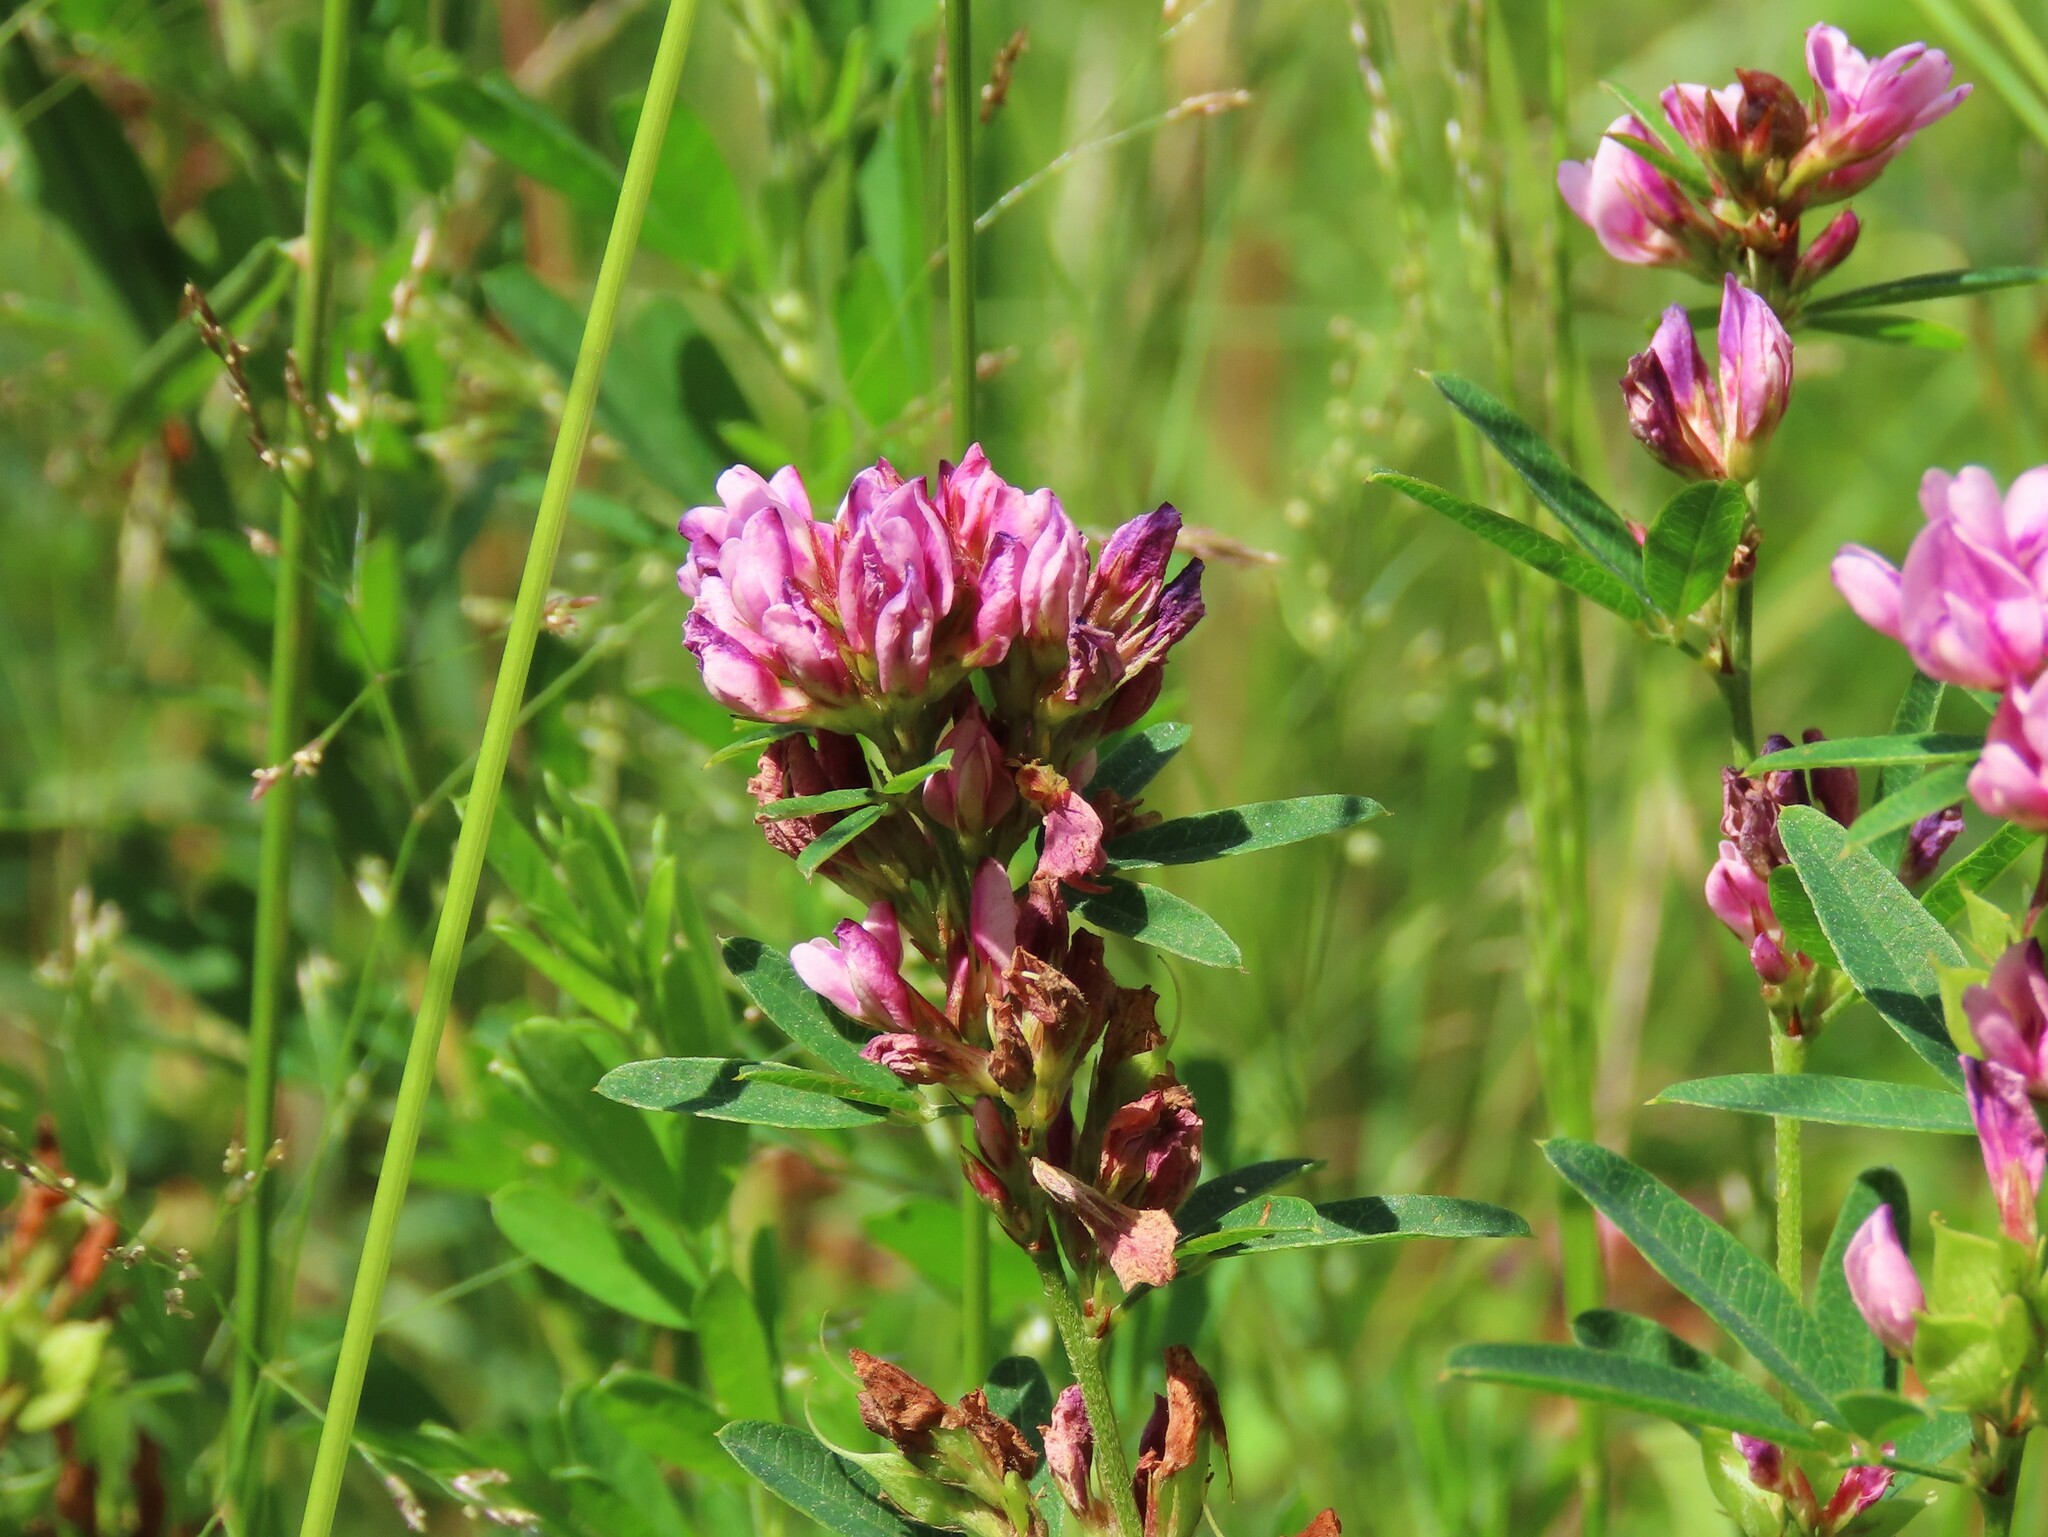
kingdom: Plantae
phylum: Tracheophyta
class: Magnoliopsida
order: Fabales
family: Fabaceae
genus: Lespedeza
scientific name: Lespedeza virginica
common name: Slender bush-clover
